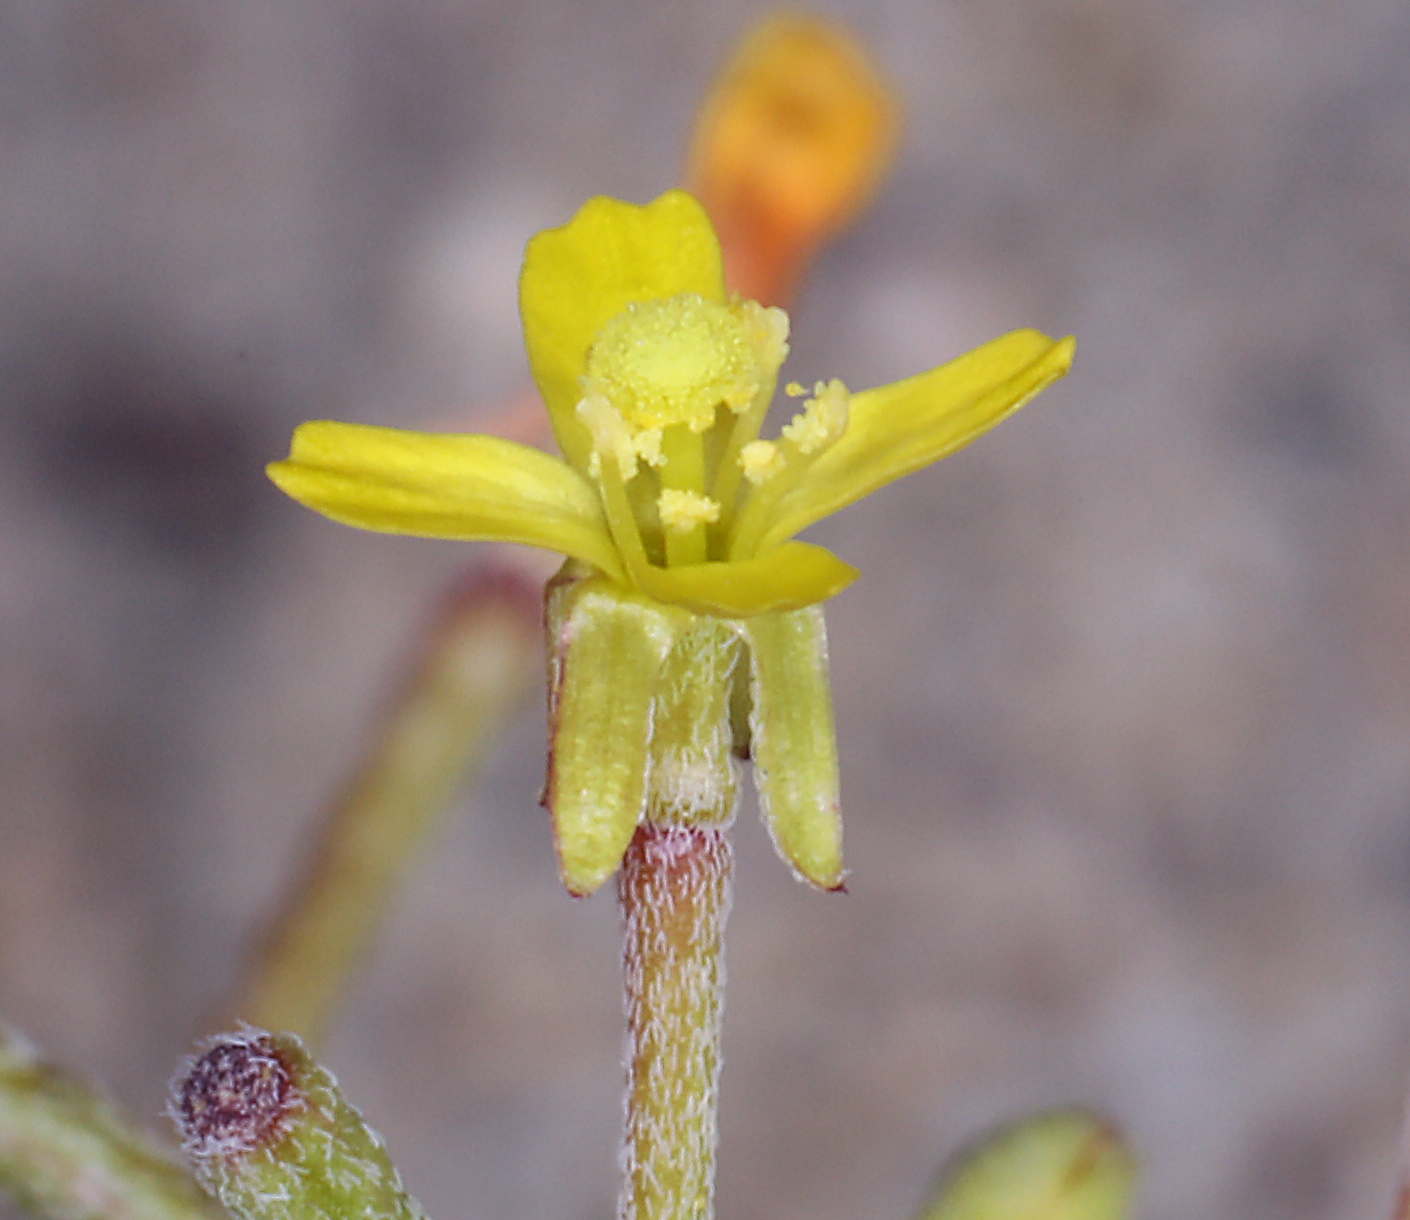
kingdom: Plantae
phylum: Tracheophyta
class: Magnoliopsida
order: Myrtales
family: Onagraceae
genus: Camissonia
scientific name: Camissonia parvula
